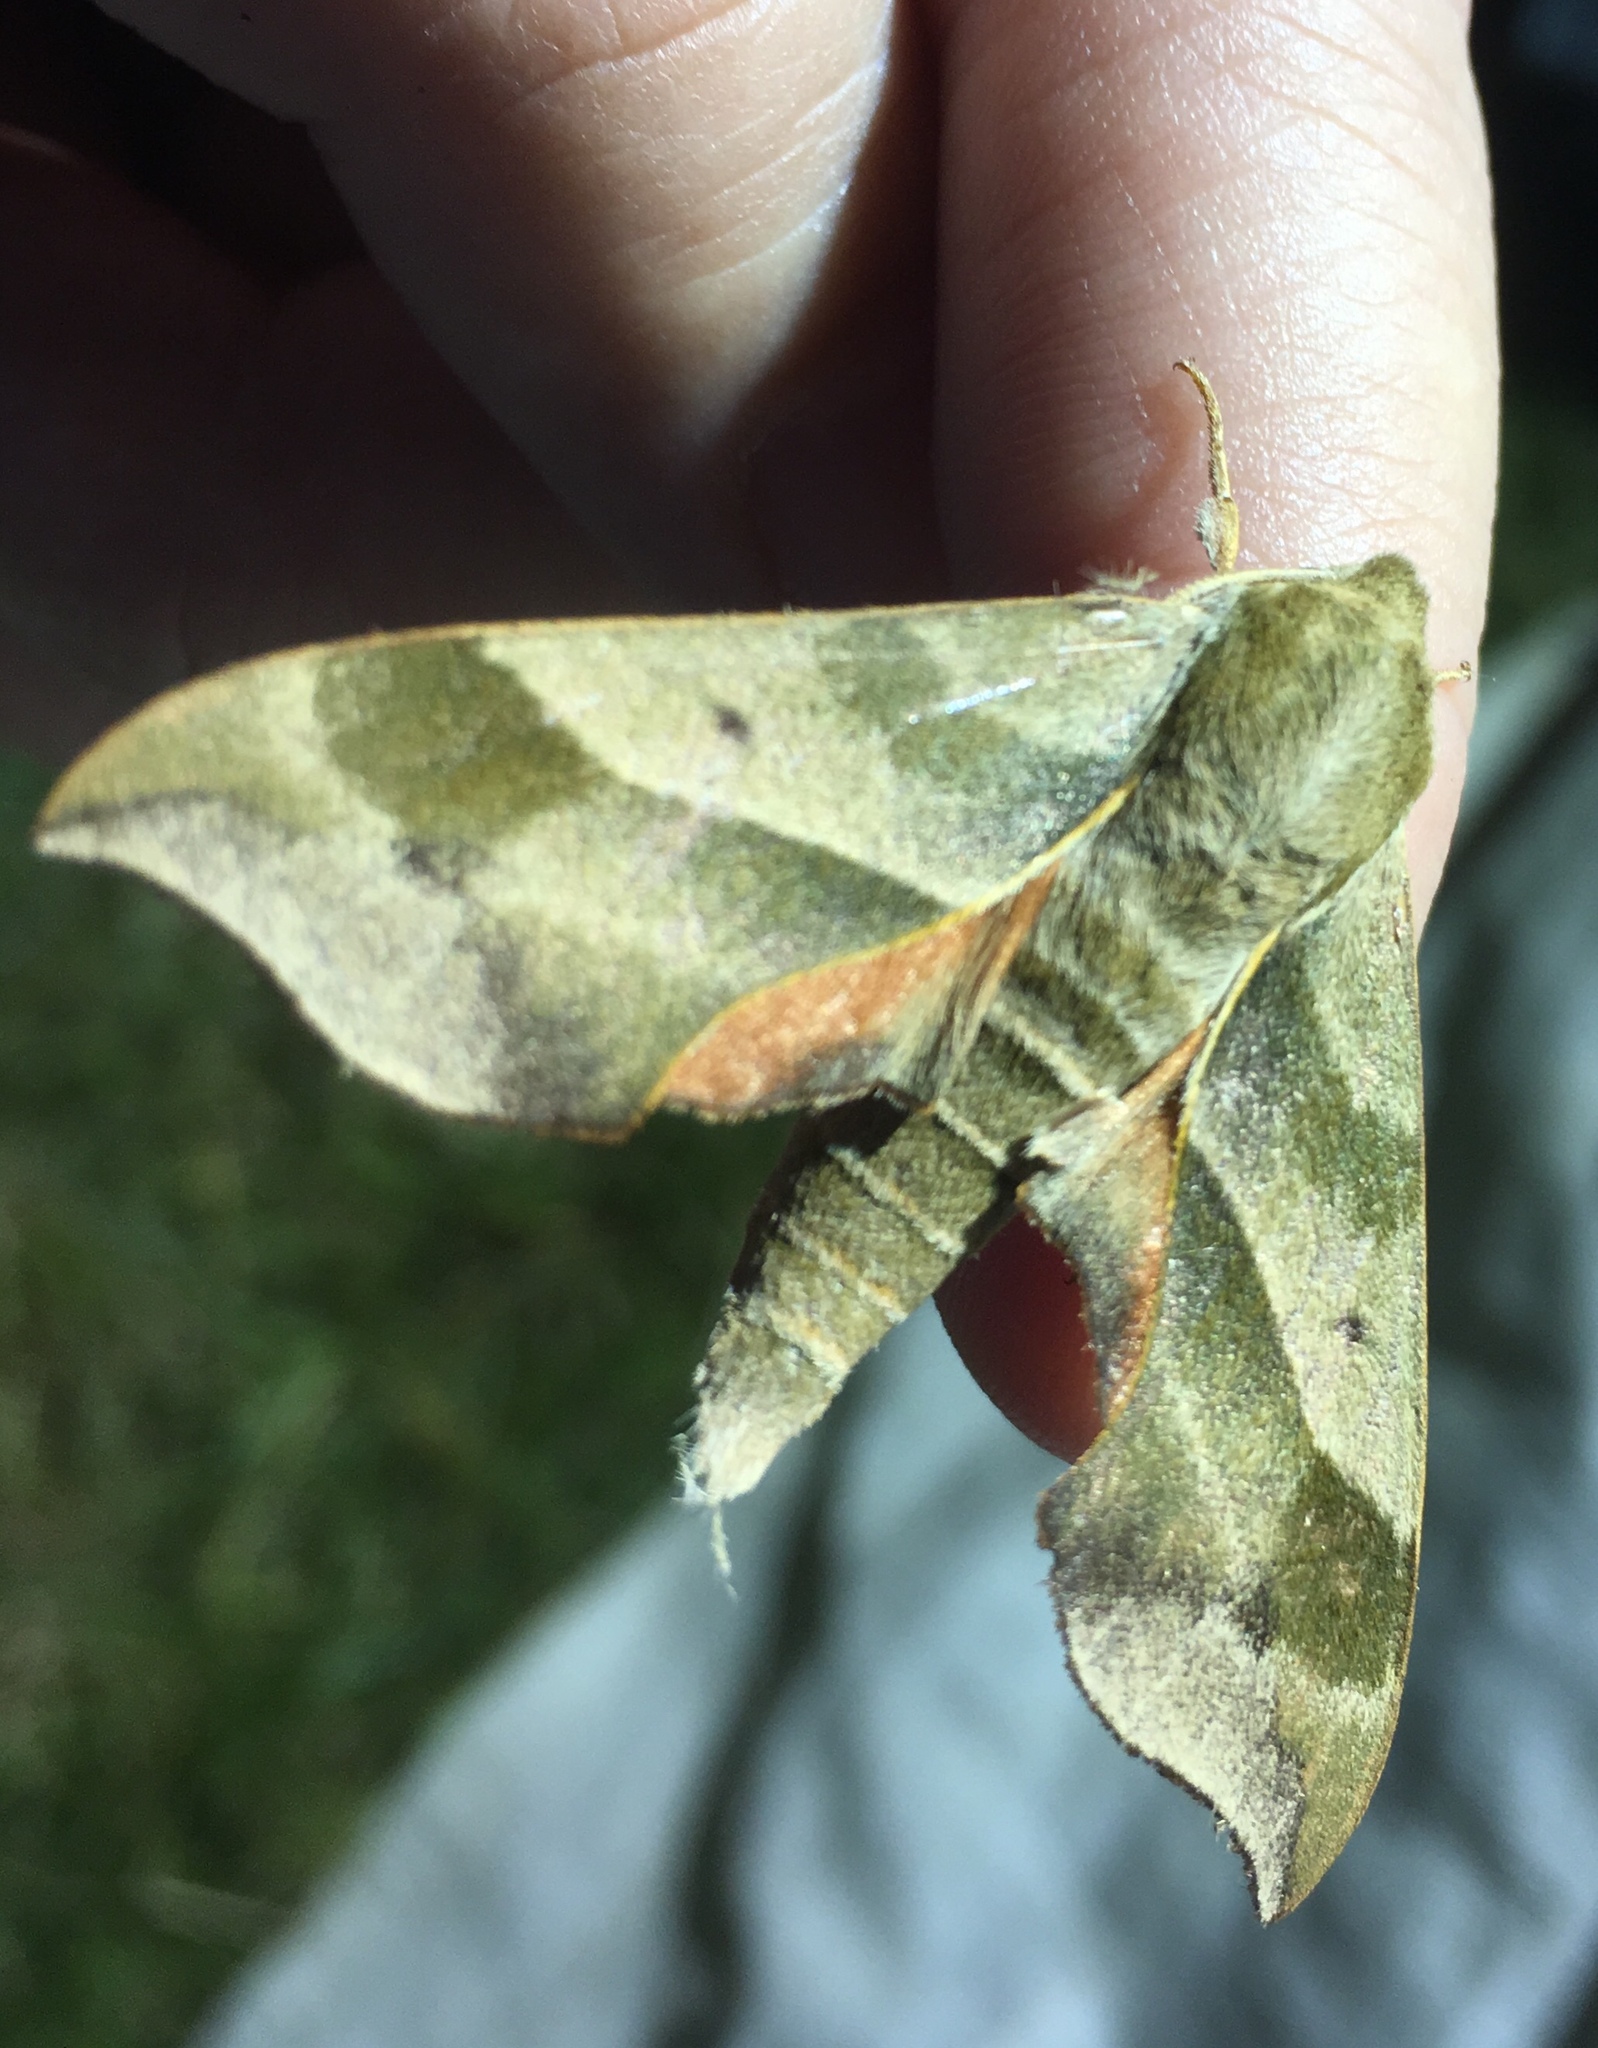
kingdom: Animalia
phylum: Arthropoda
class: Insecta
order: Lepidoptera
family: Sphingidae
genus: Darapsa
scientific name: Darapsa myron
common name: Hog sphinx
